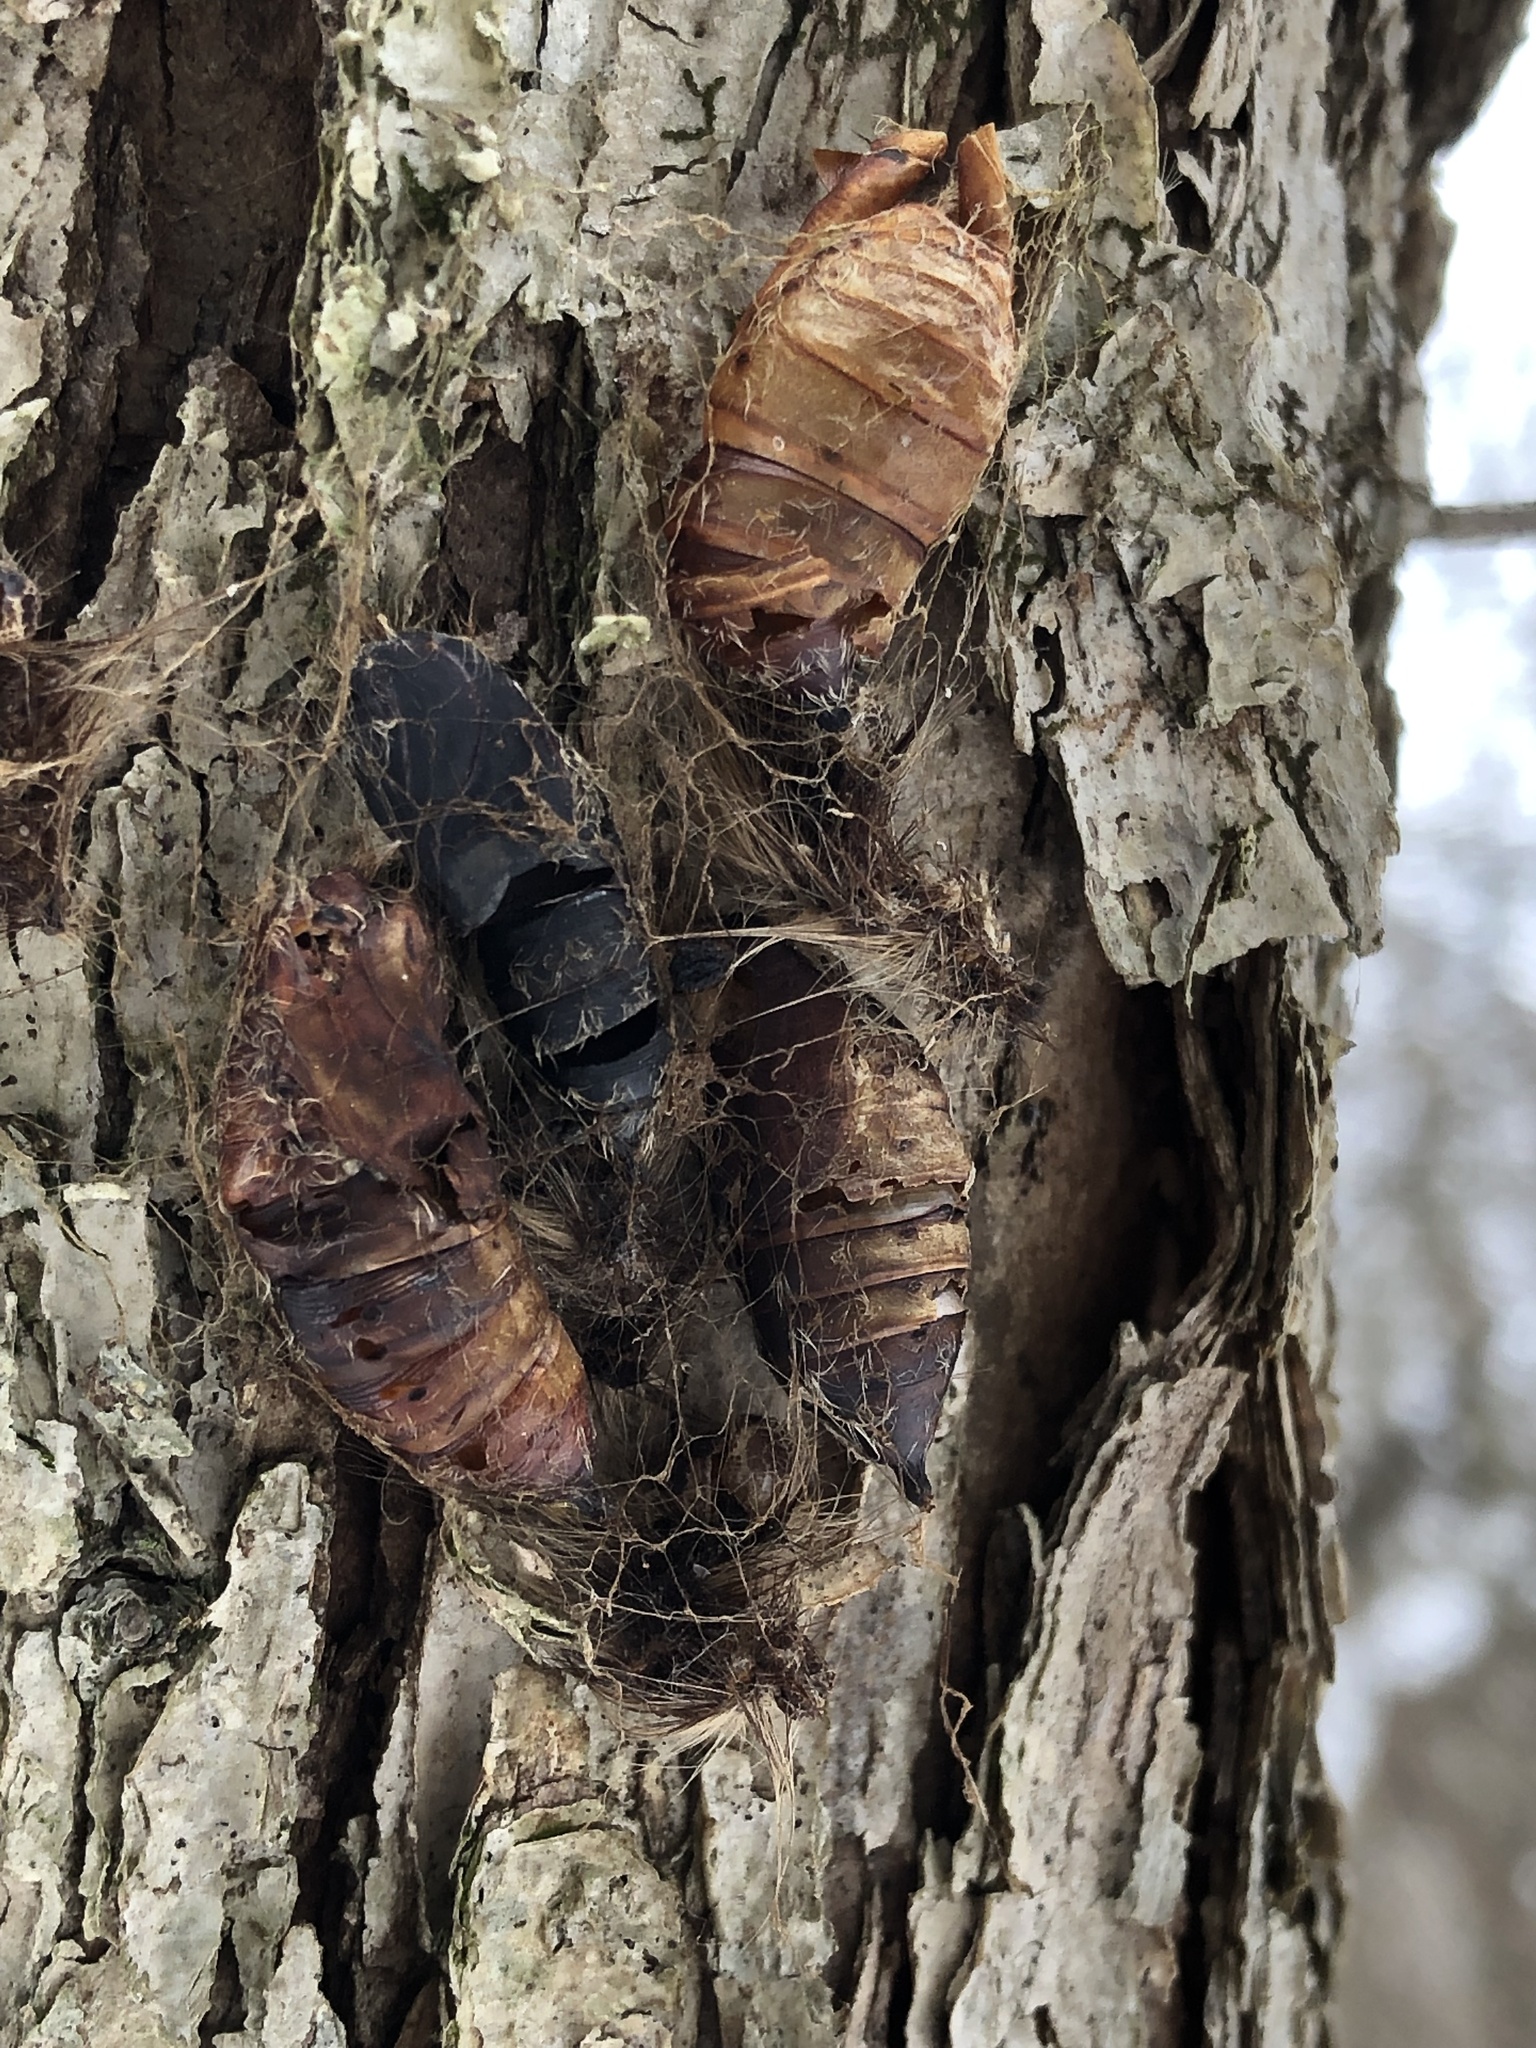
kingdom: Animalia
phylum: Arthropoda
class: Insecta
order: Lepidoptera
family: Erebidae
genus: Lymantria
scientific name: Lymantria dispar
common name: Gypsy moth
